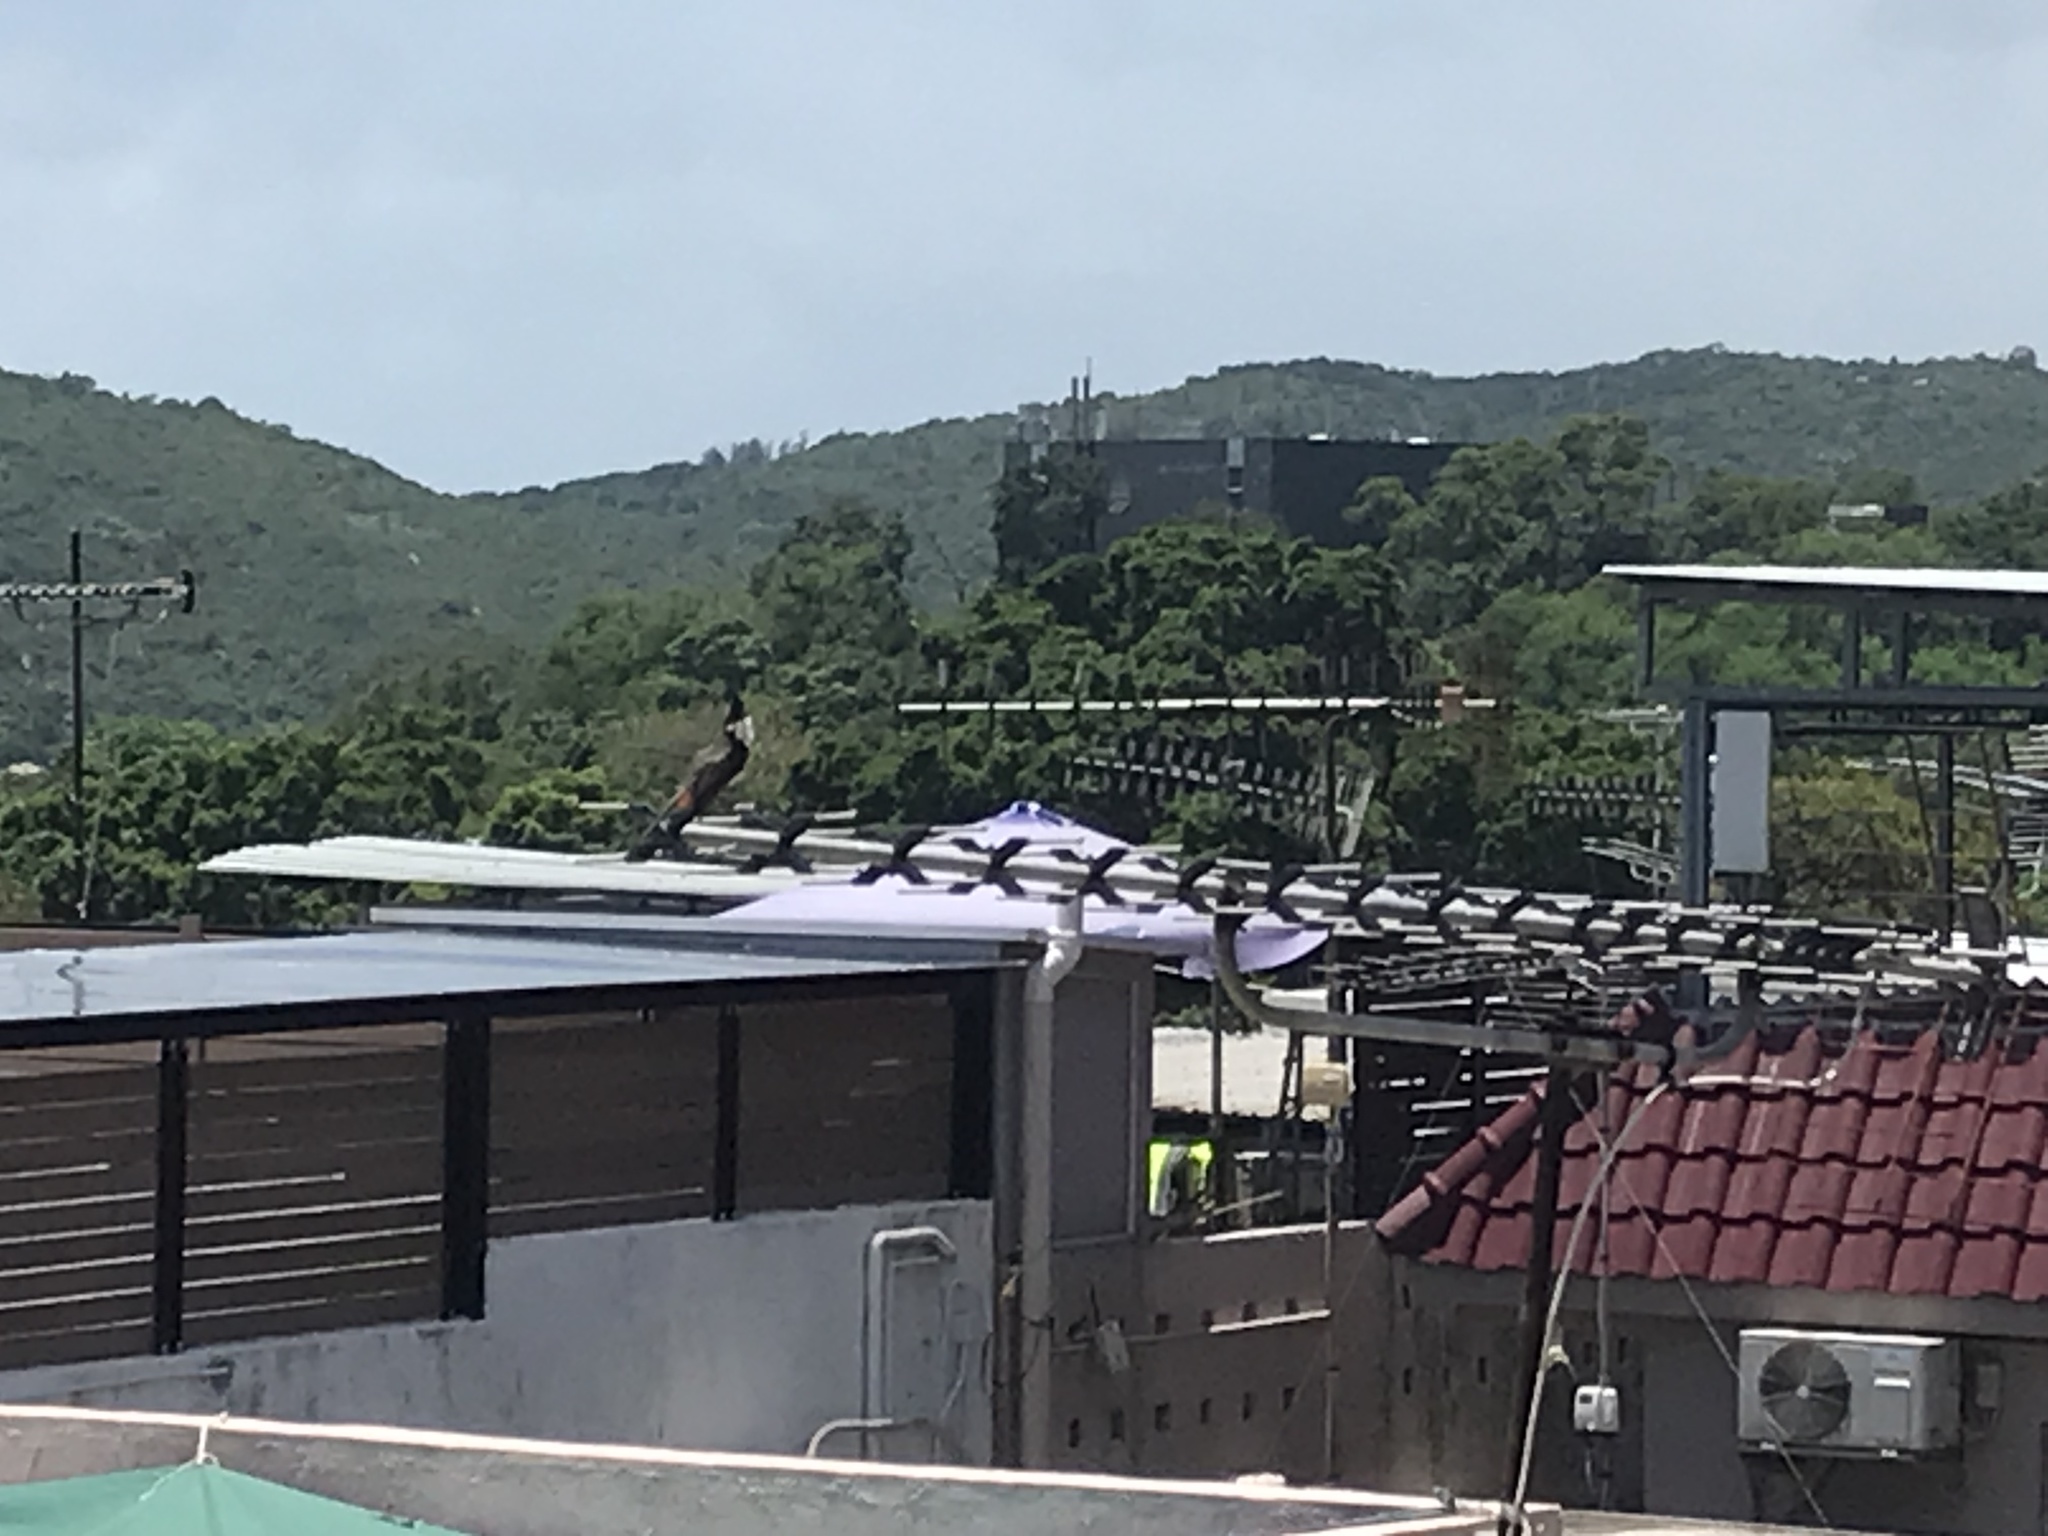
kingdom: Animalia
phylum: Chordata
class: Aves
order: Passeriformes
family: Pycnonotidae
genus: Pycnonotus
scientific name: Pycnonotus jocosus
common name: Red-whiskered bulbul
